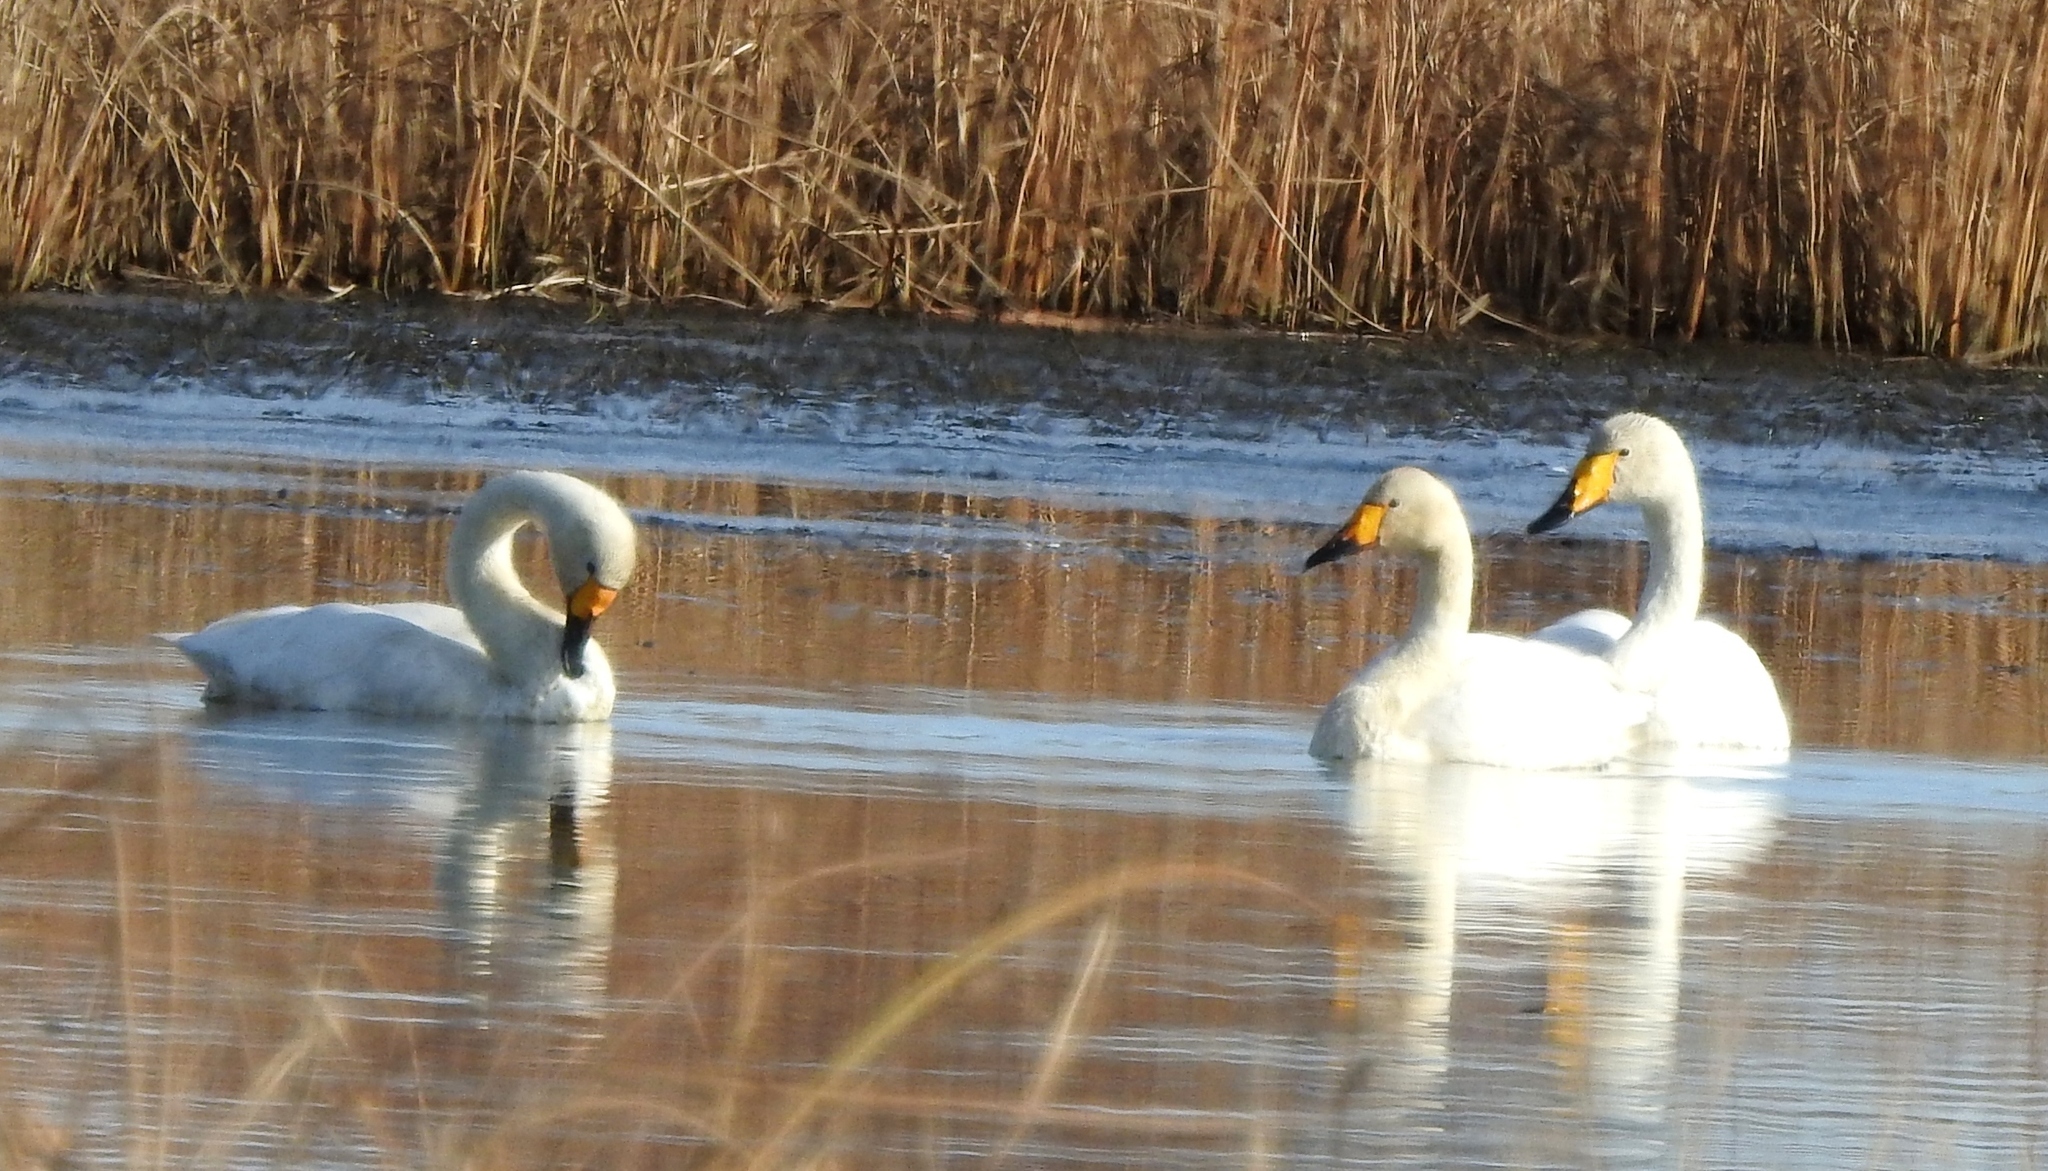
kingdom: Animalia
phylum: Chordata
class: Aves
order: Anseriformes
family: Anatidae
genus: Cygnus
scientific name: Cygnus cygnus
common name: Whooper swan
